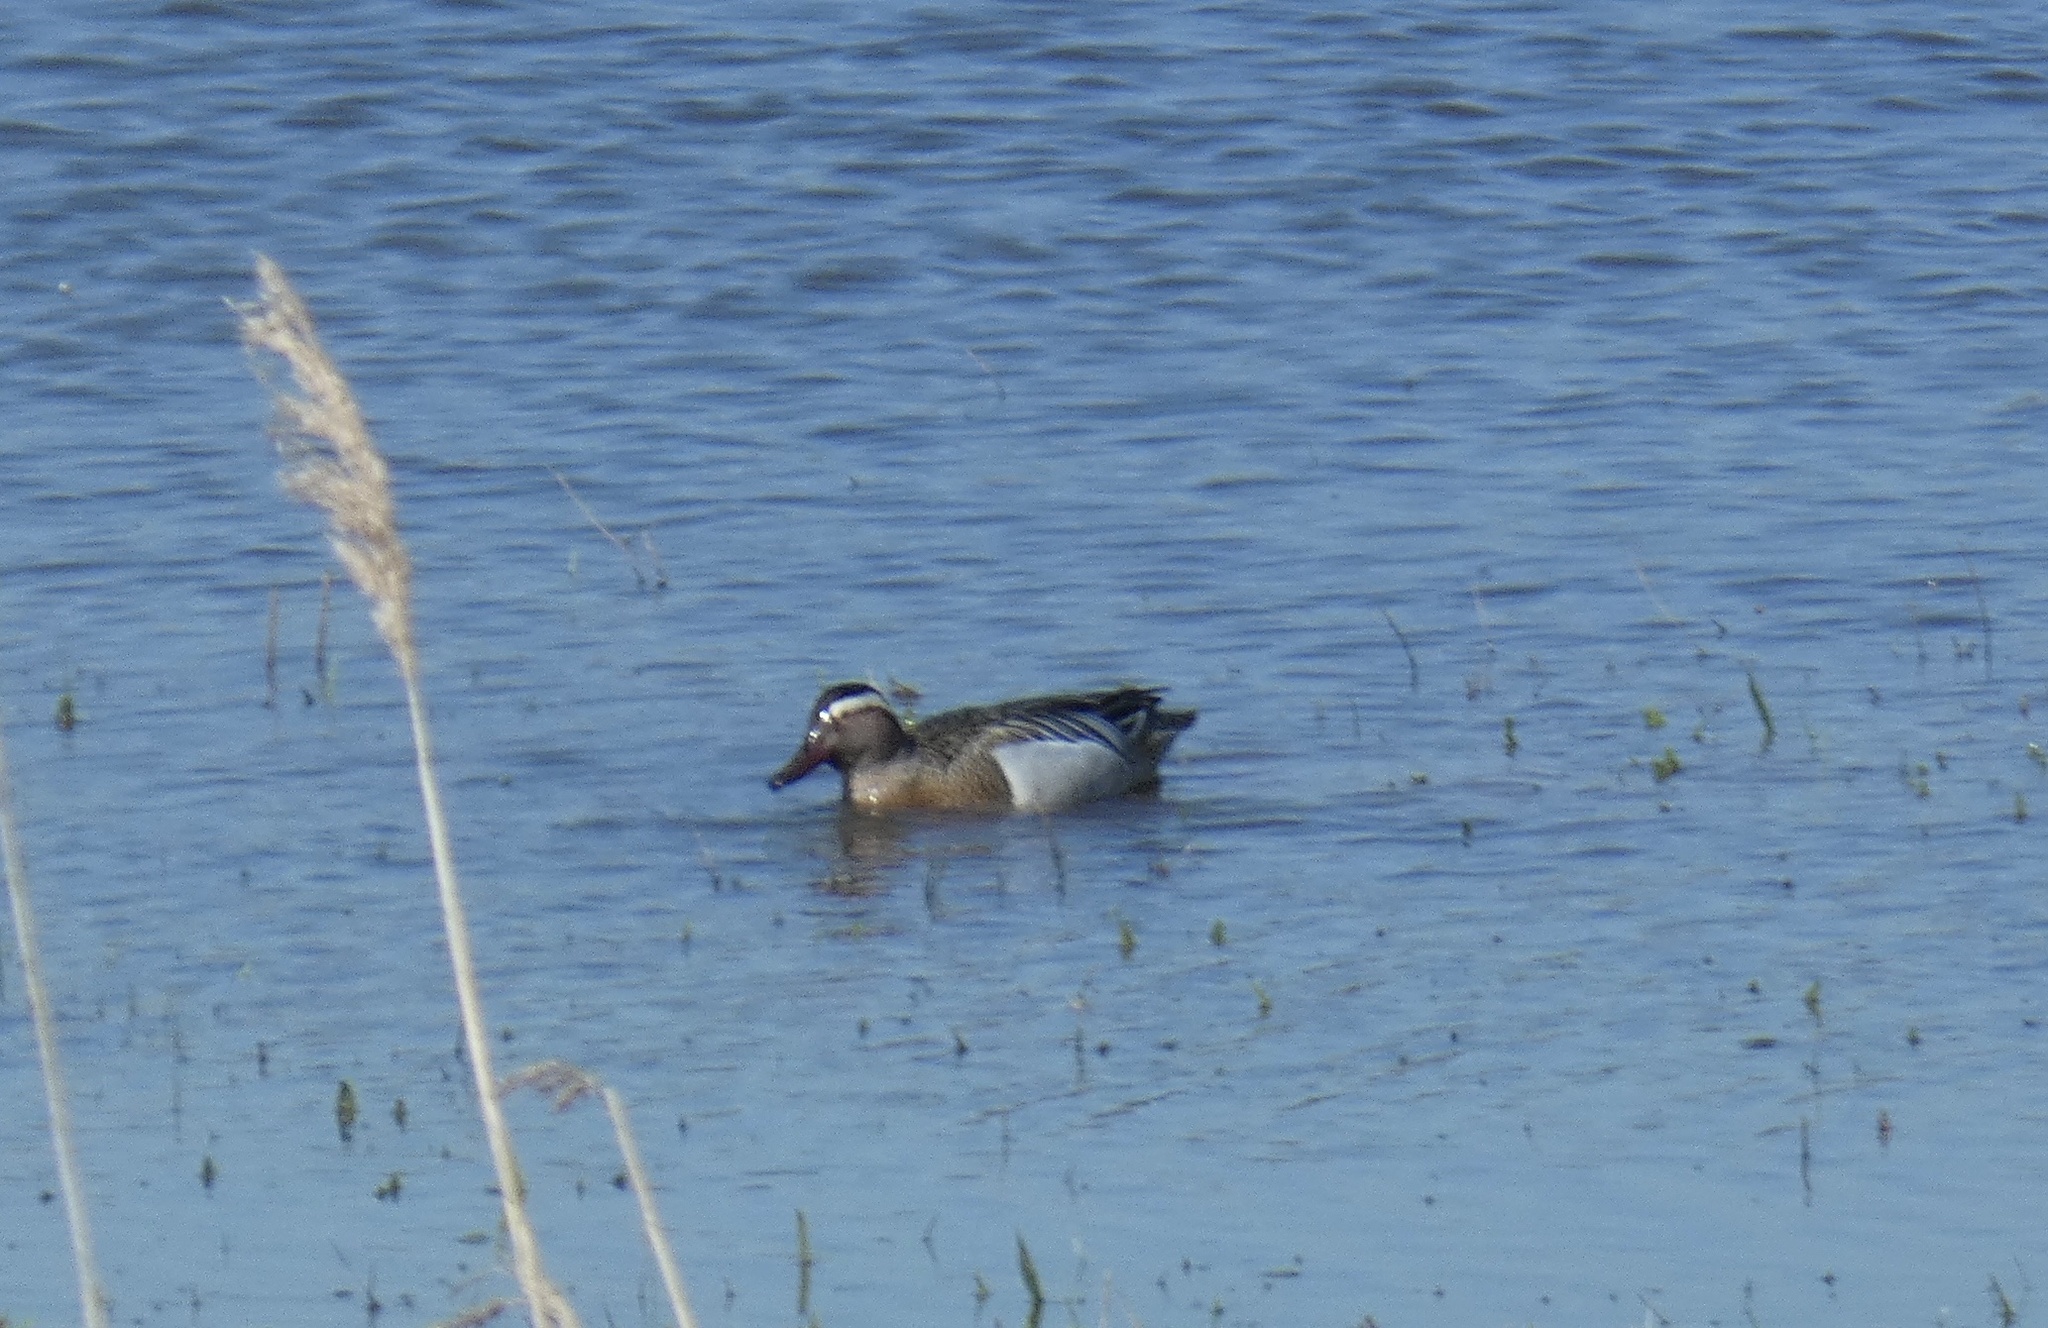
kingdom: Animalia
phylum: Chordata
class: Aves
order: Anseriformes
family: Anatidae
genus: Spatula
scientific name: Spatula querquedula
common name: Garganey
